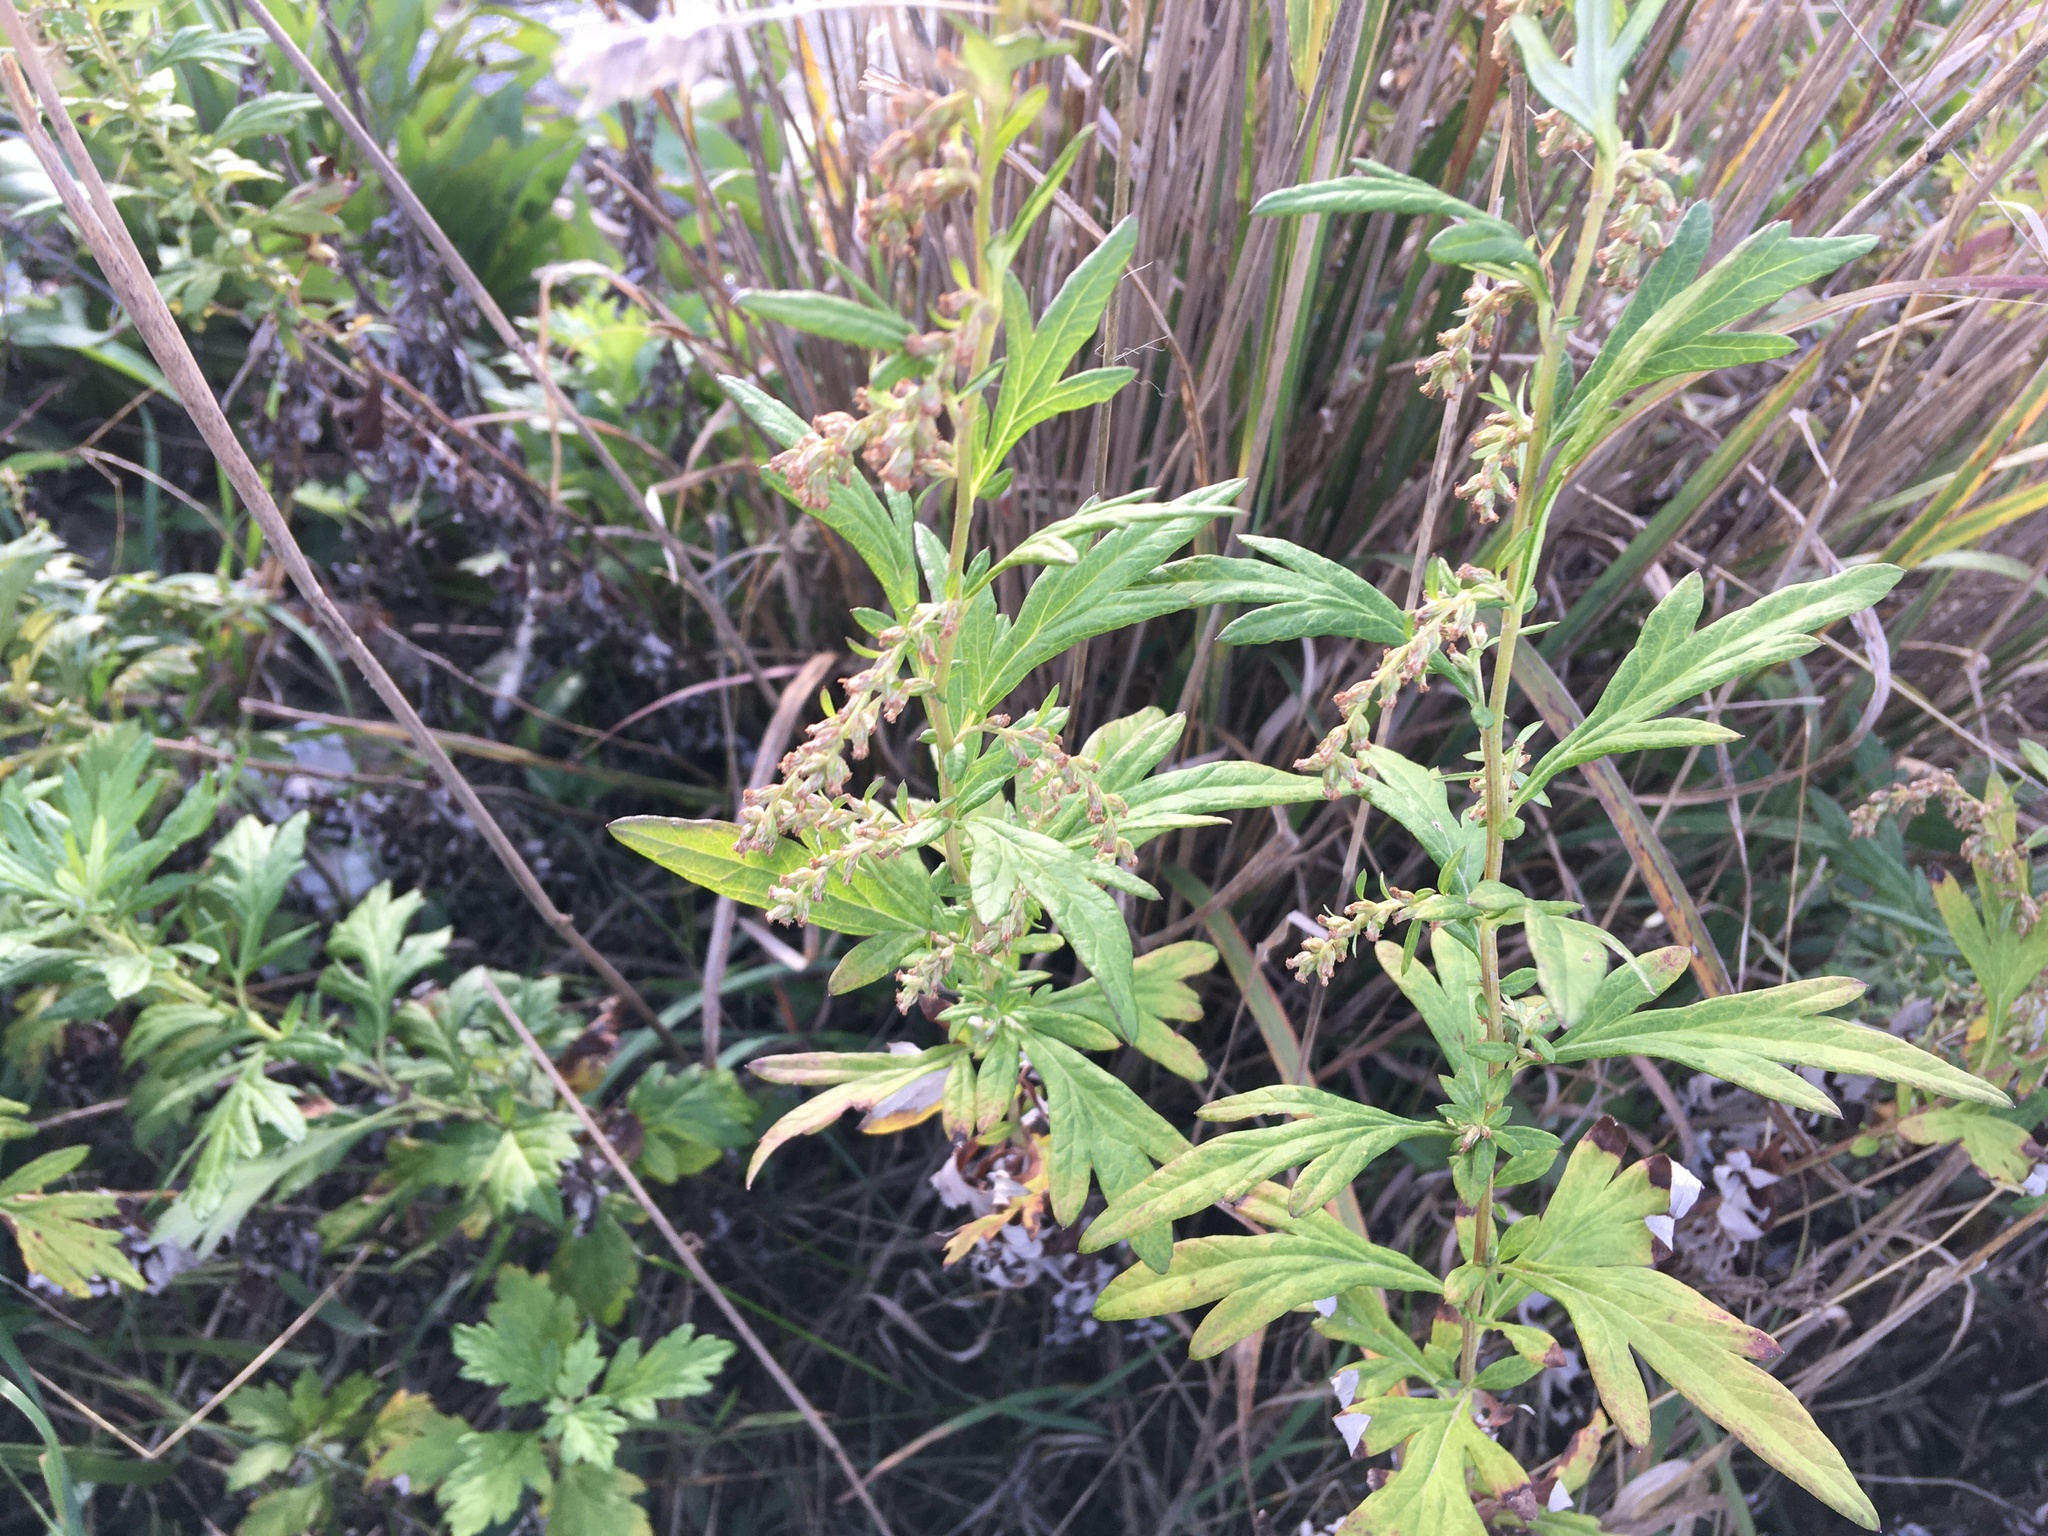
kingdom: Plantae
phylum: Tracheophyta
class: Magnoliopsida
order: Asterales
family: Asteraceae
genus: Artemisia
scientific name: Artemisia vulgaris
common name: Mugwort
